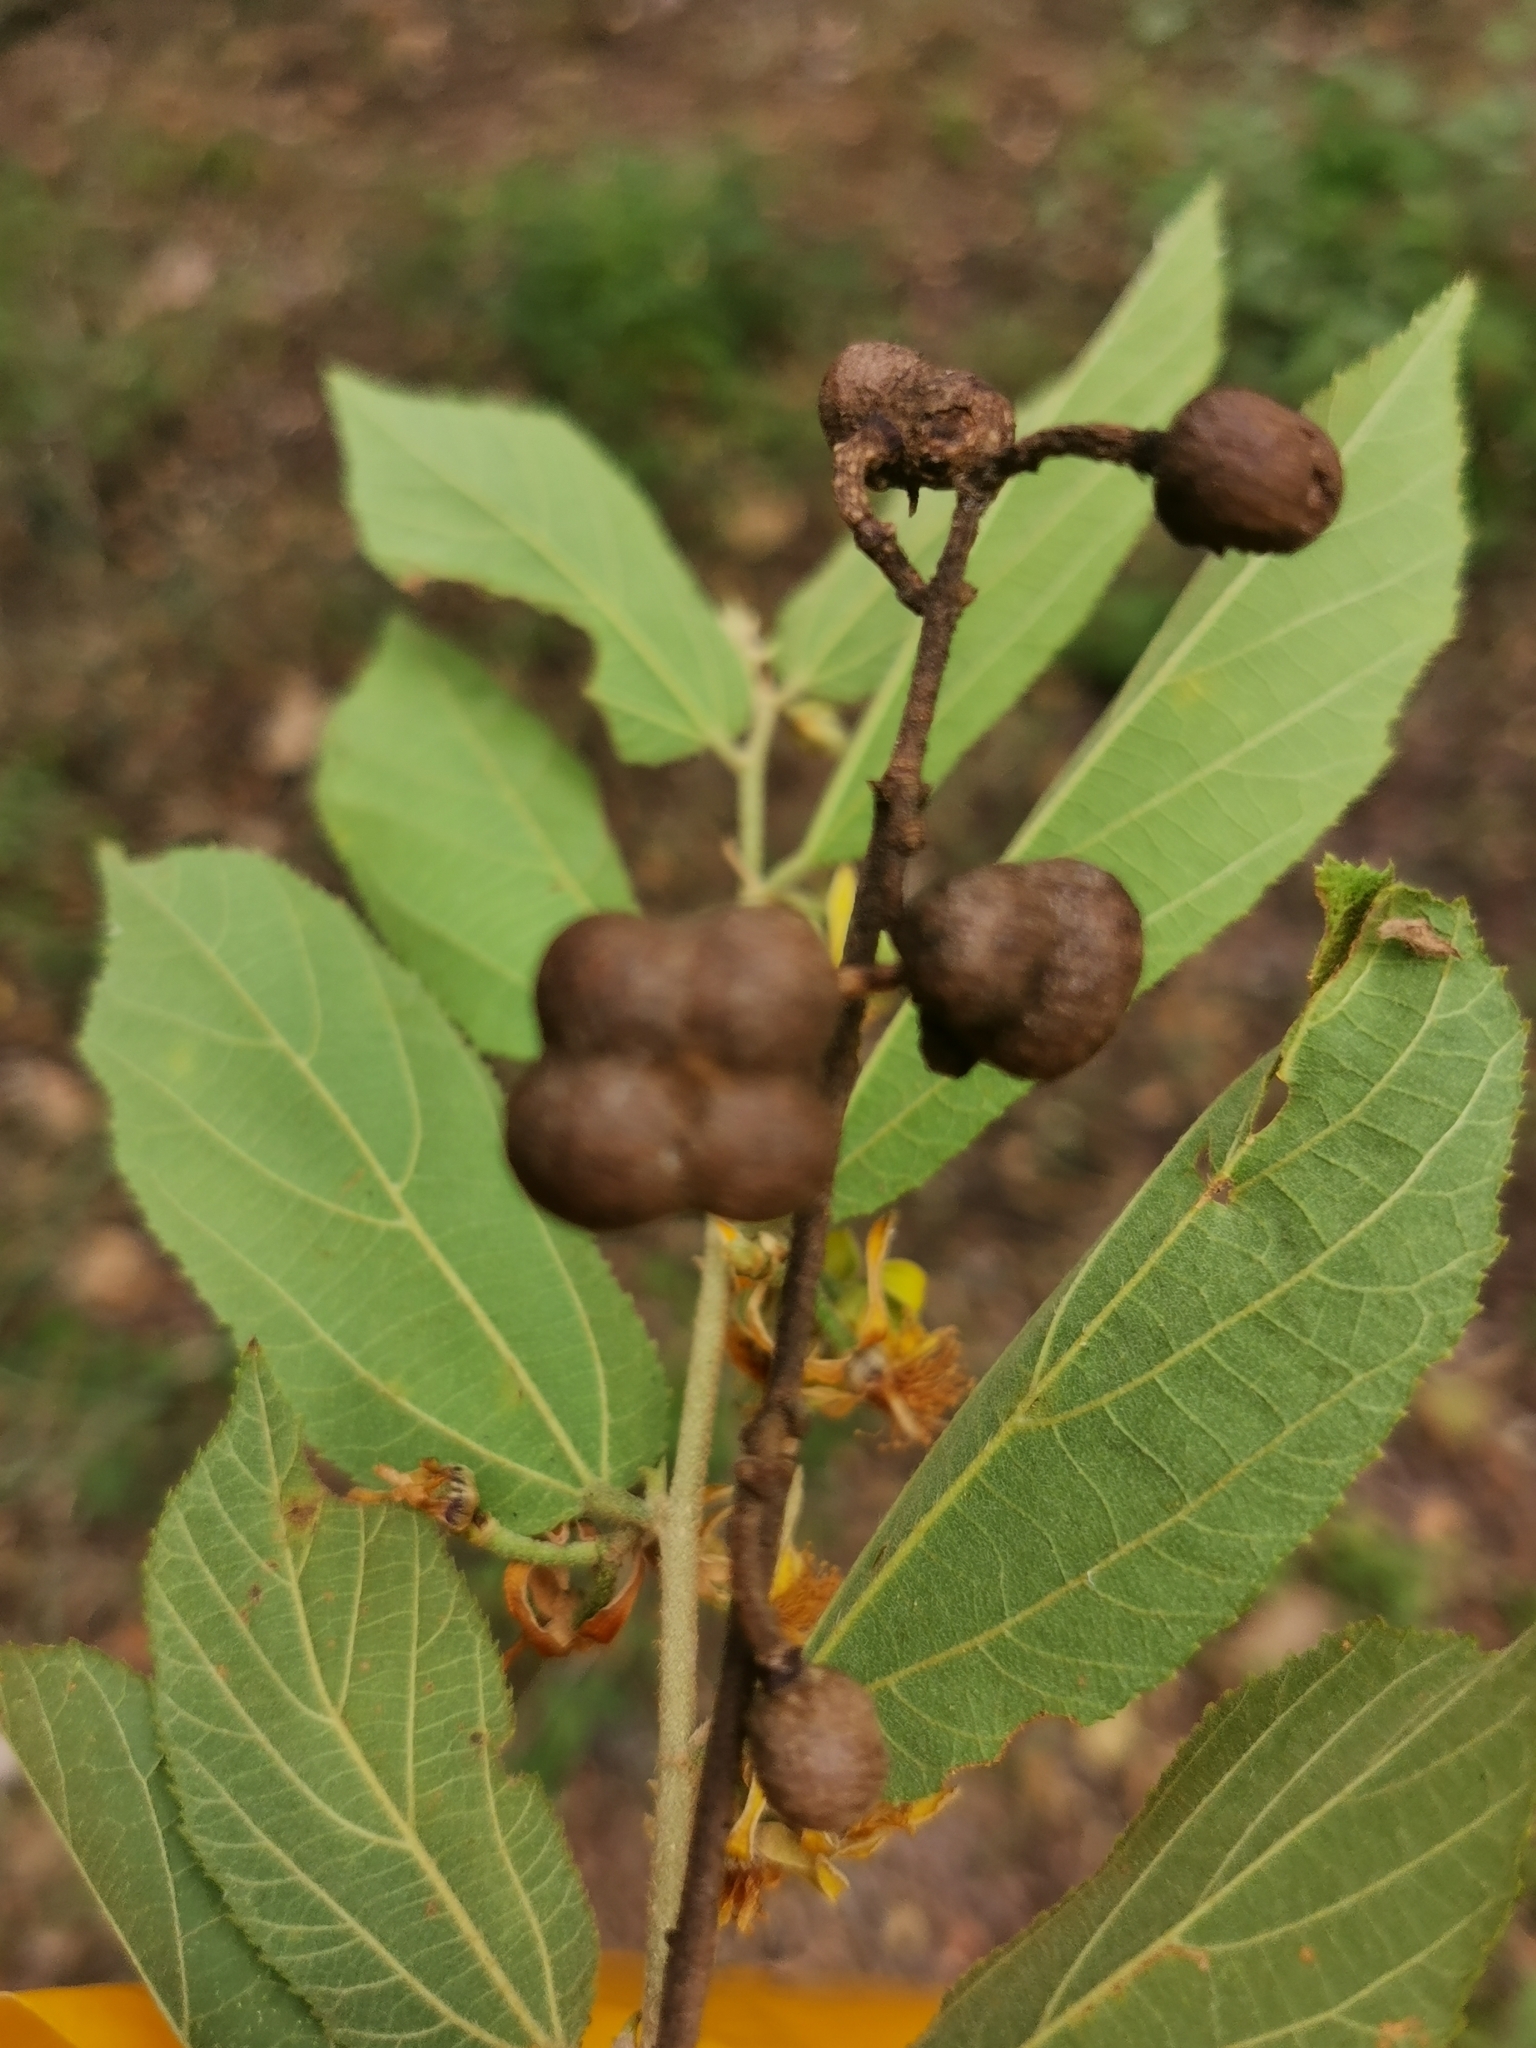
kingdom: Plantae
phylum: Tracheophyta
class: Magnoliopsida
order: Malvales
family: Malvaceae
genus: Grewia
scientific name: Grewia flavescens
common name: Sandpaper raisin
